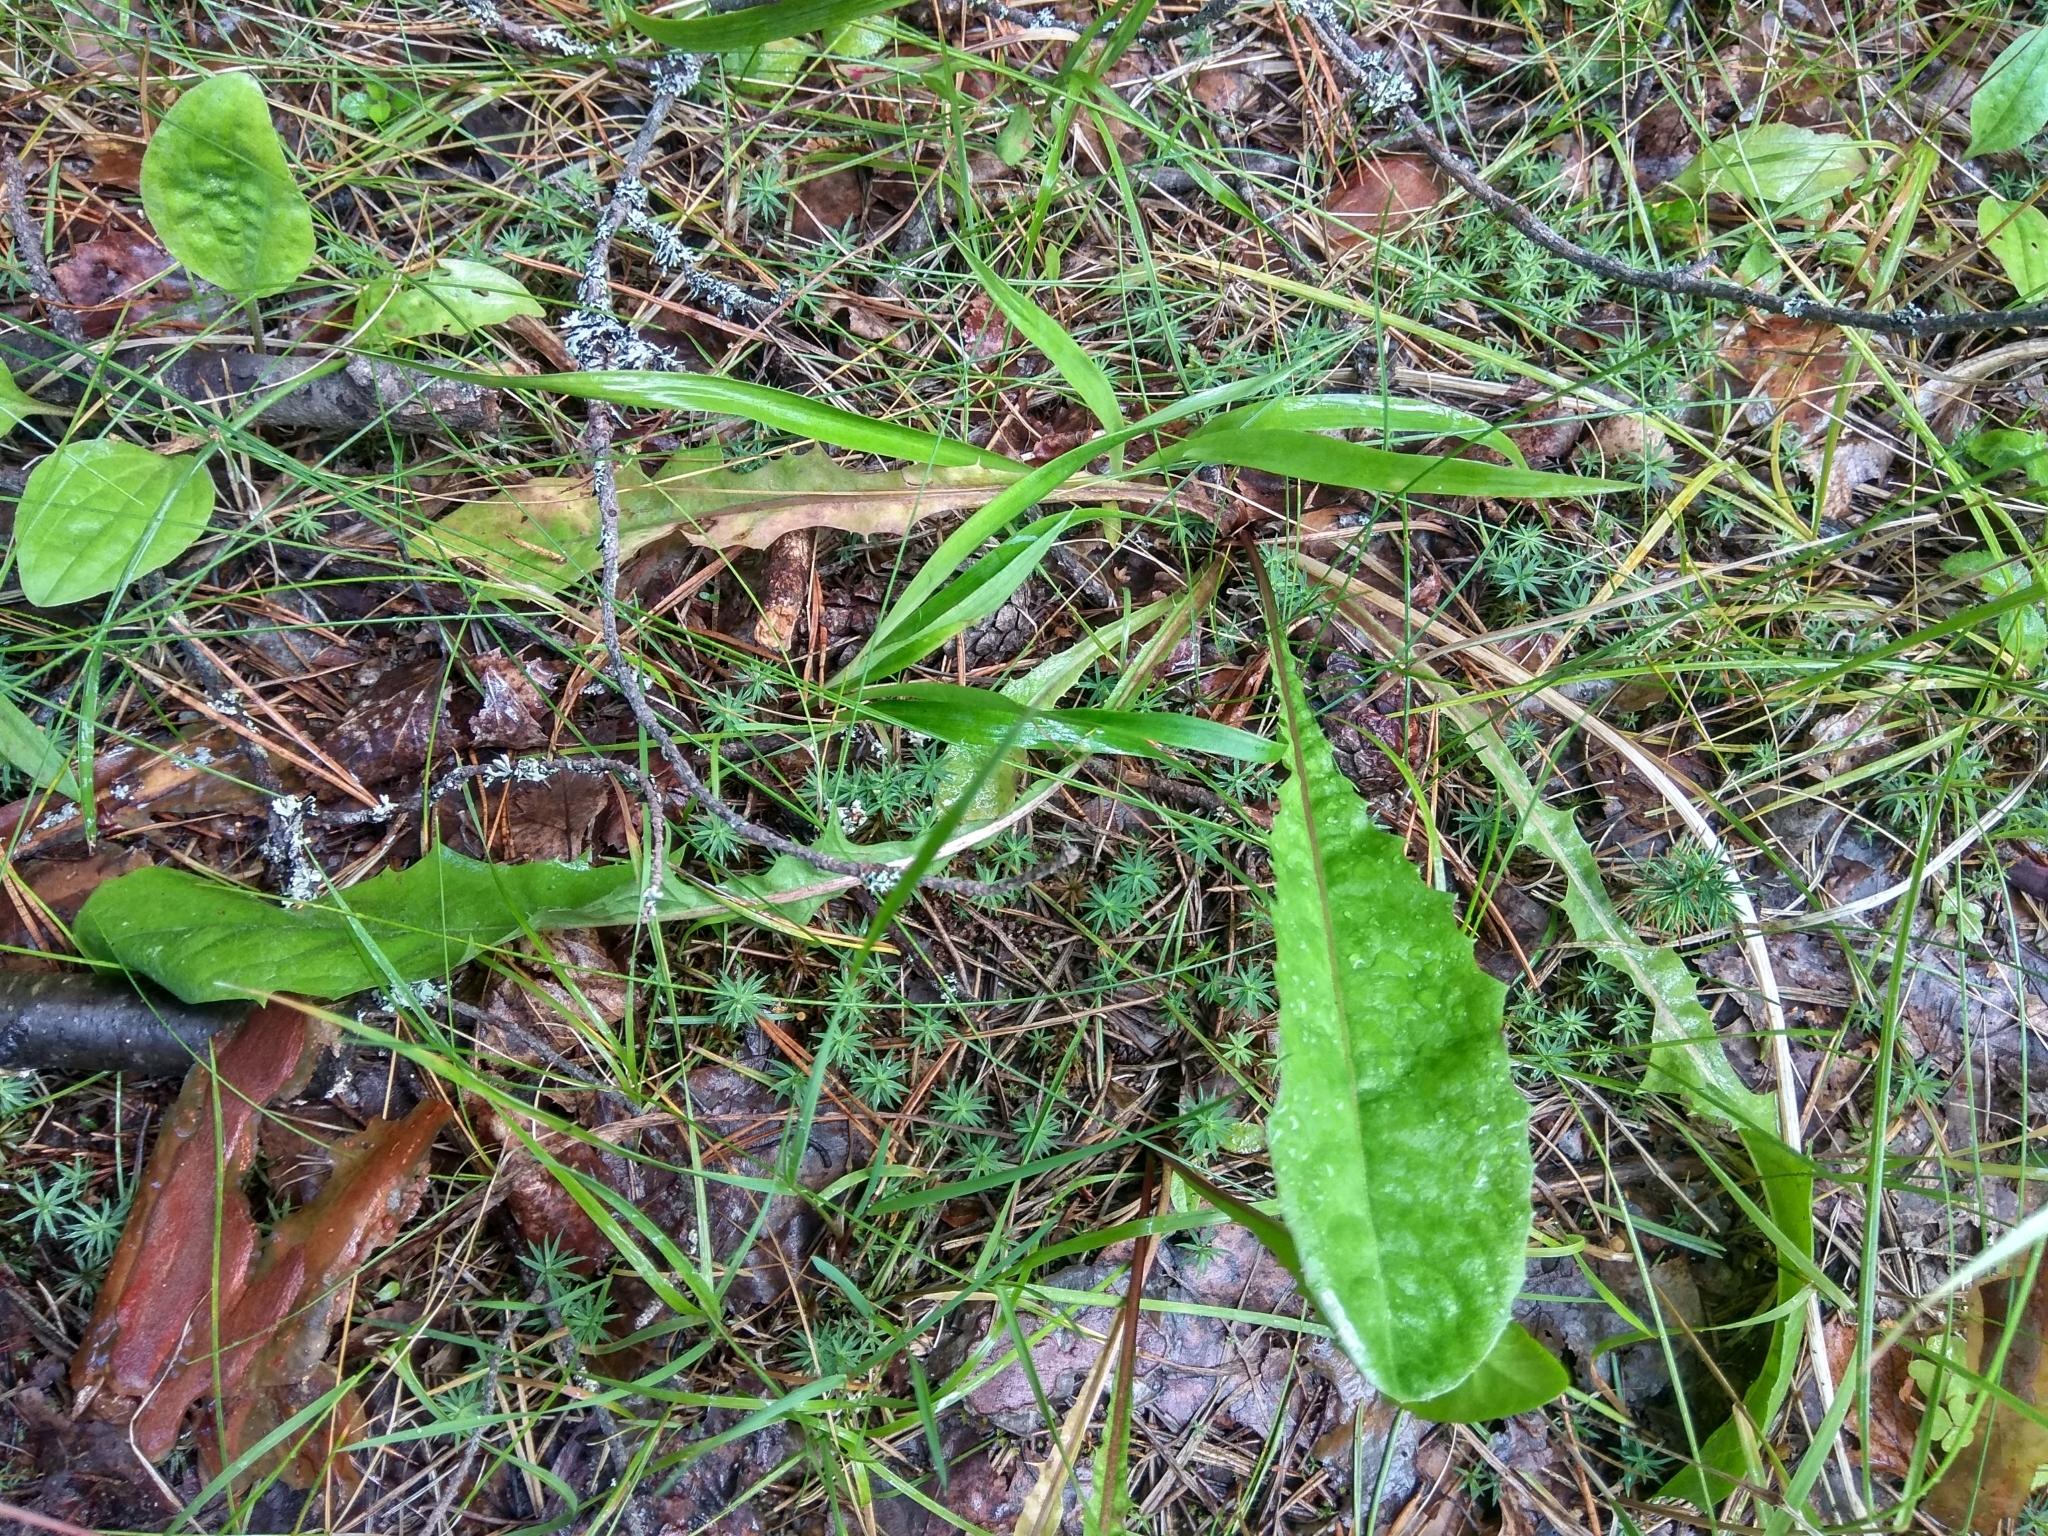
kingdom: Plantae
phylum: Tracheophyta
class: Magnoliopsida
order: Asterales
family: Asteraceae
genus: Taraxacum
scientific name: Taraxacum officinale
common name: Common dandelion
